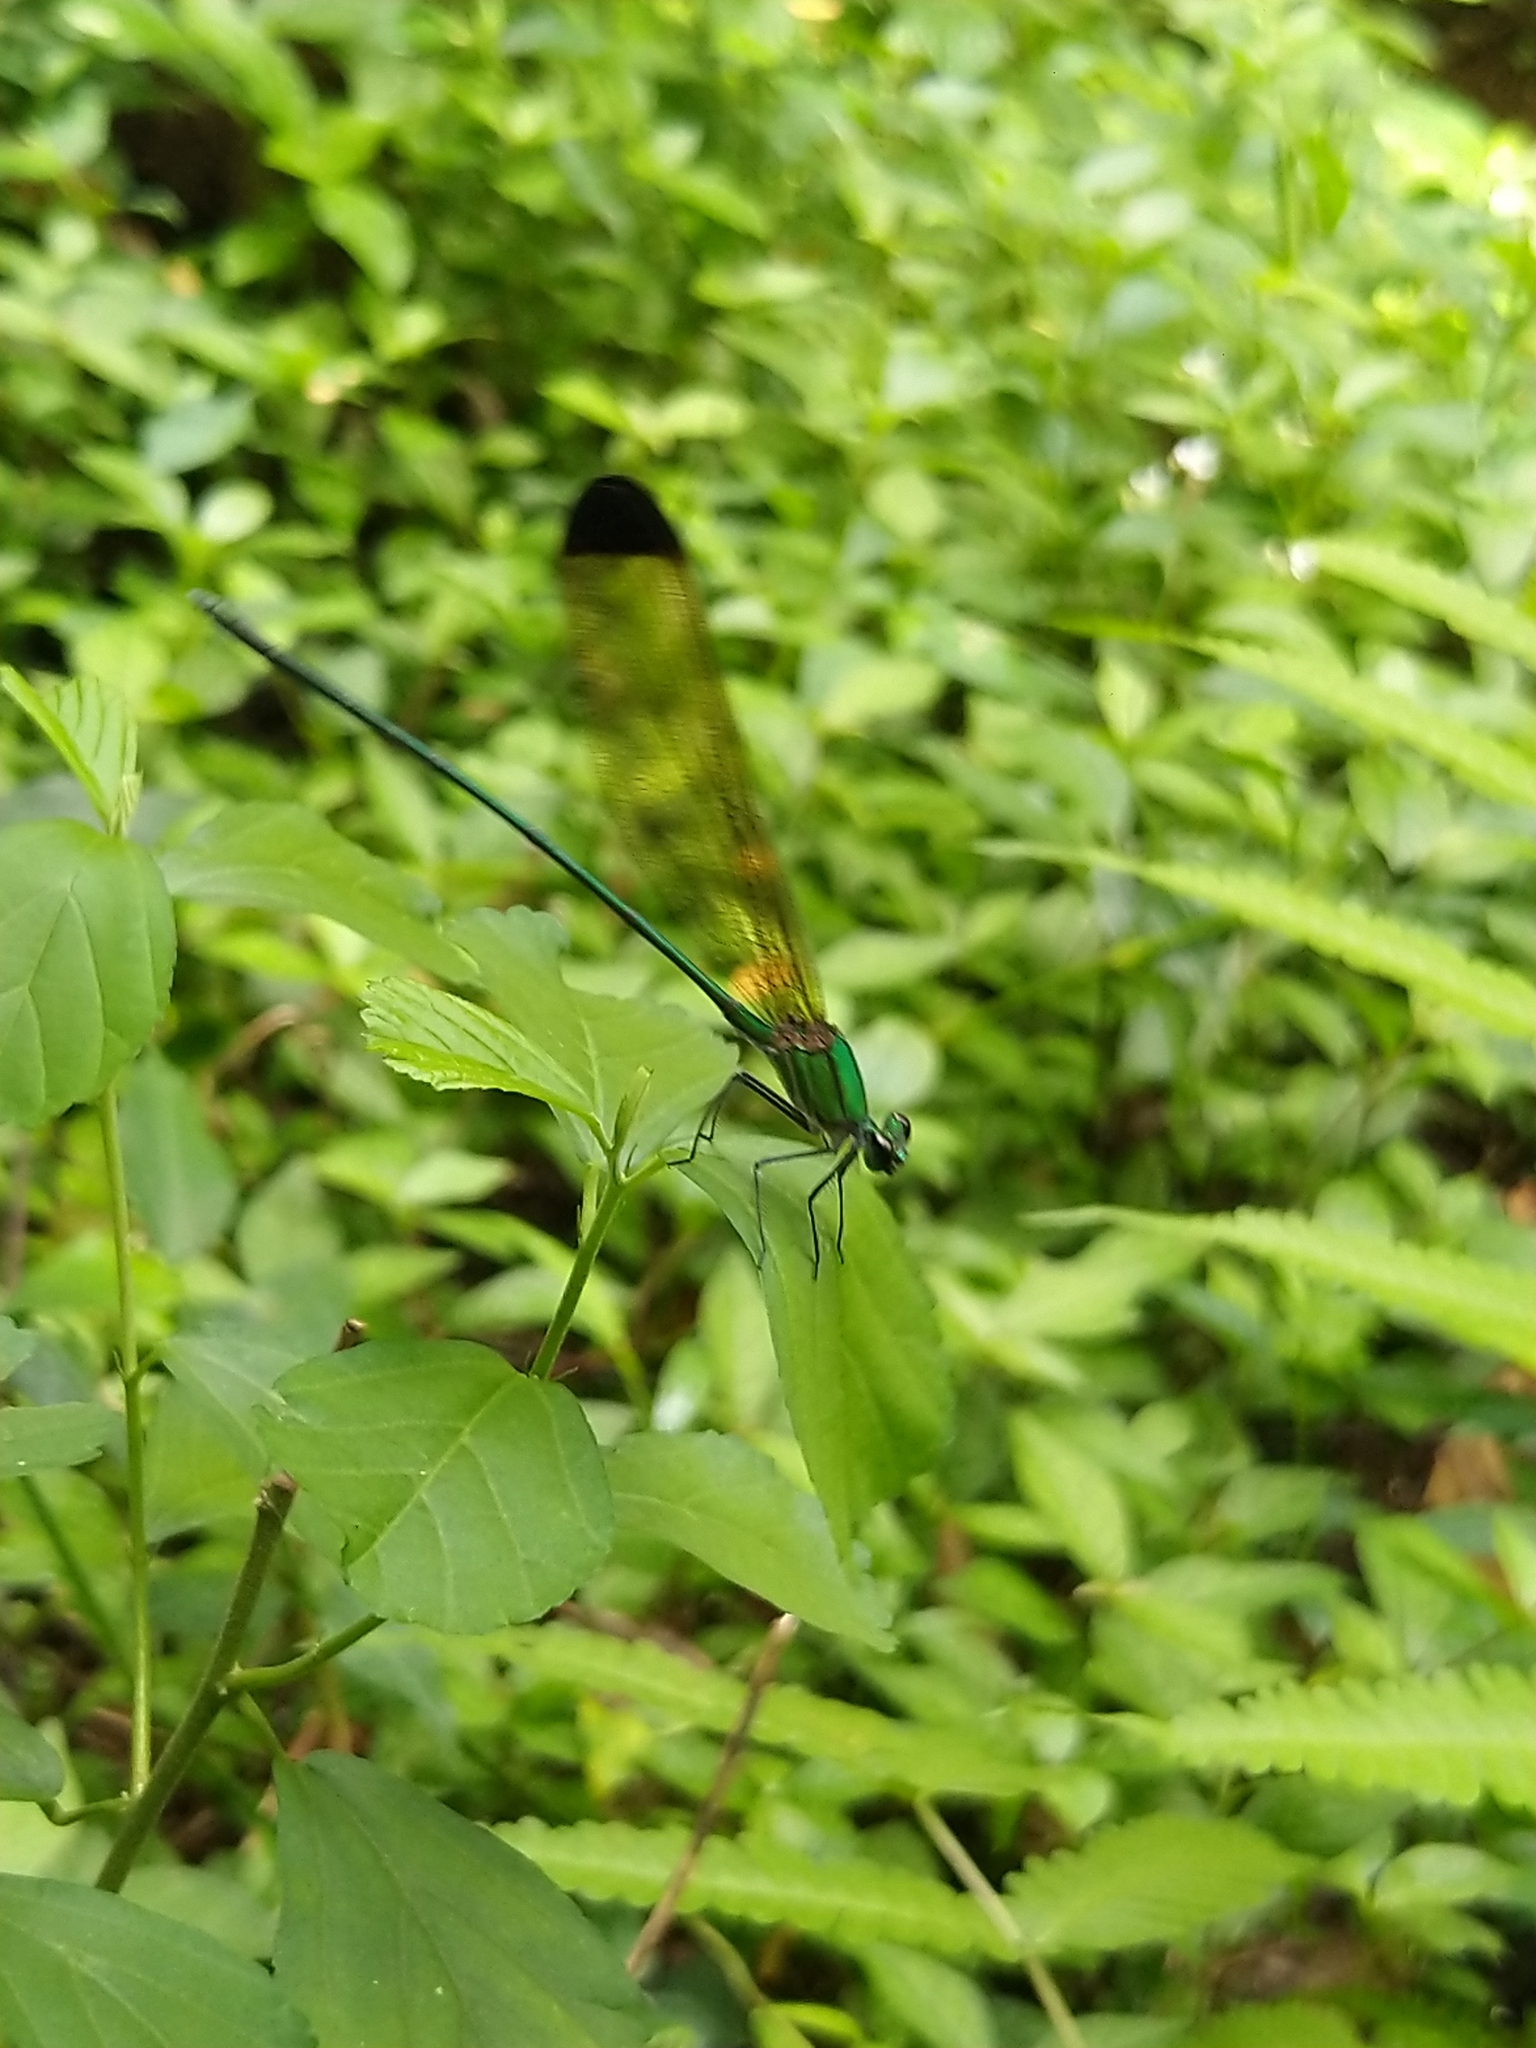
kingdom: Animalia
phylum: Arthropoda
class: Insecta
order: Odonata
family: Calopterygidae
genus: Vestalis
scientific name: Vestalis apicalis
